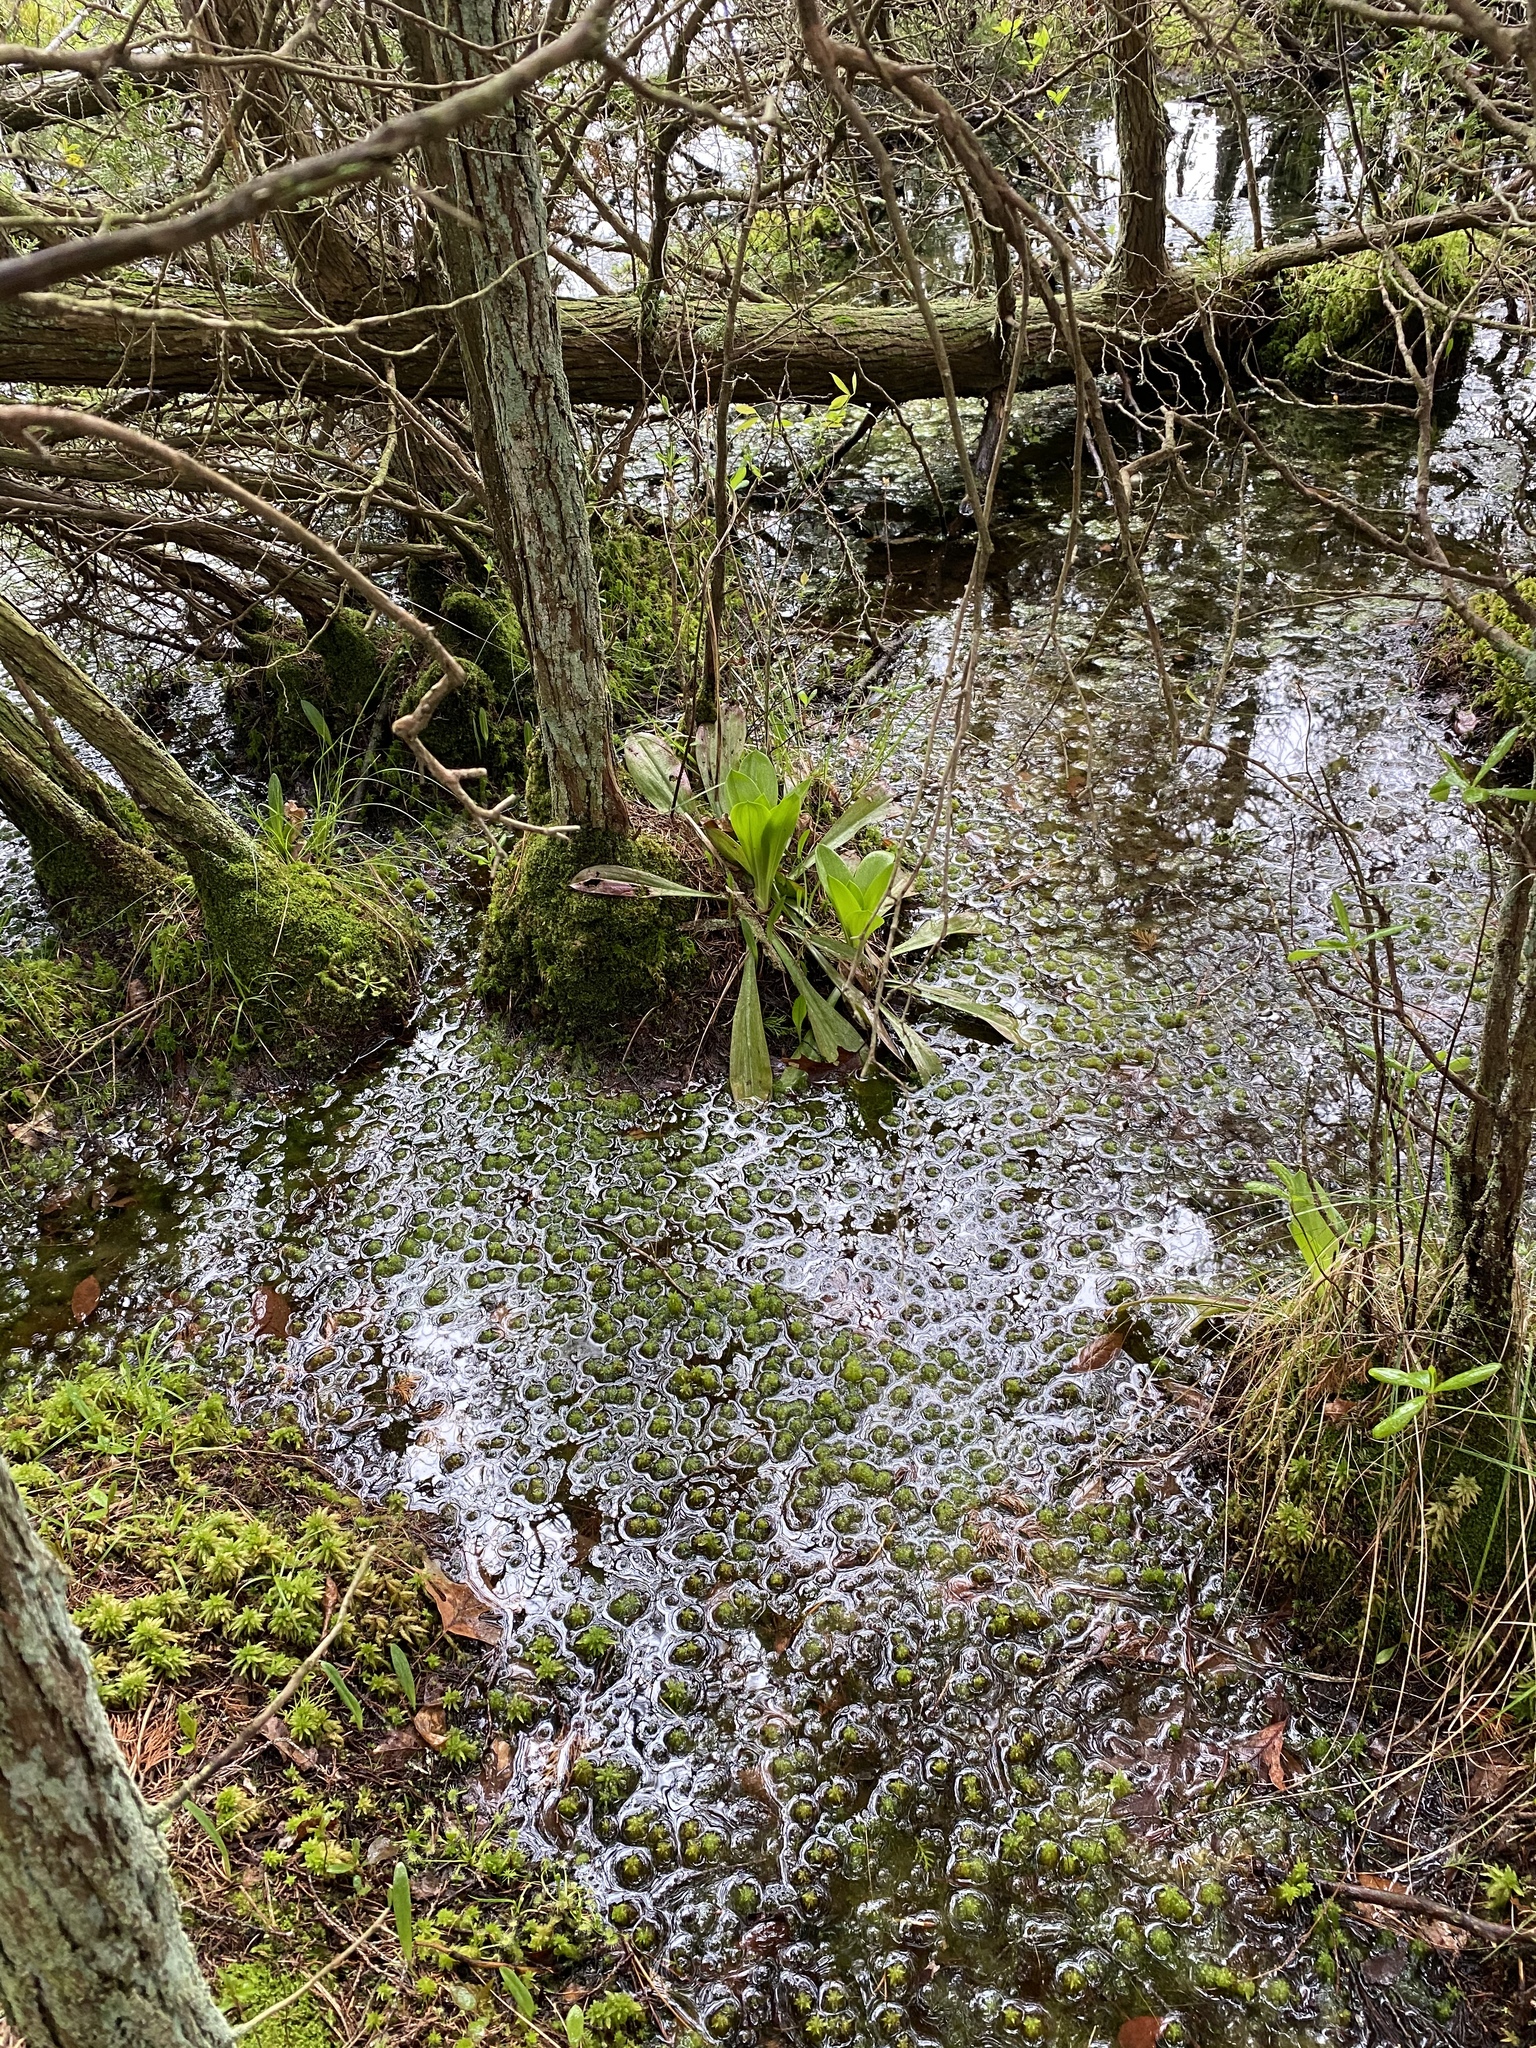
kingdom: Plantae
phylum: Tracheophyta
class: Liliopsida
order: Liliales
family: Melanthiaceae
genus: Helonias
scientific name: Helonias bullata
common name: Swamp-pink
